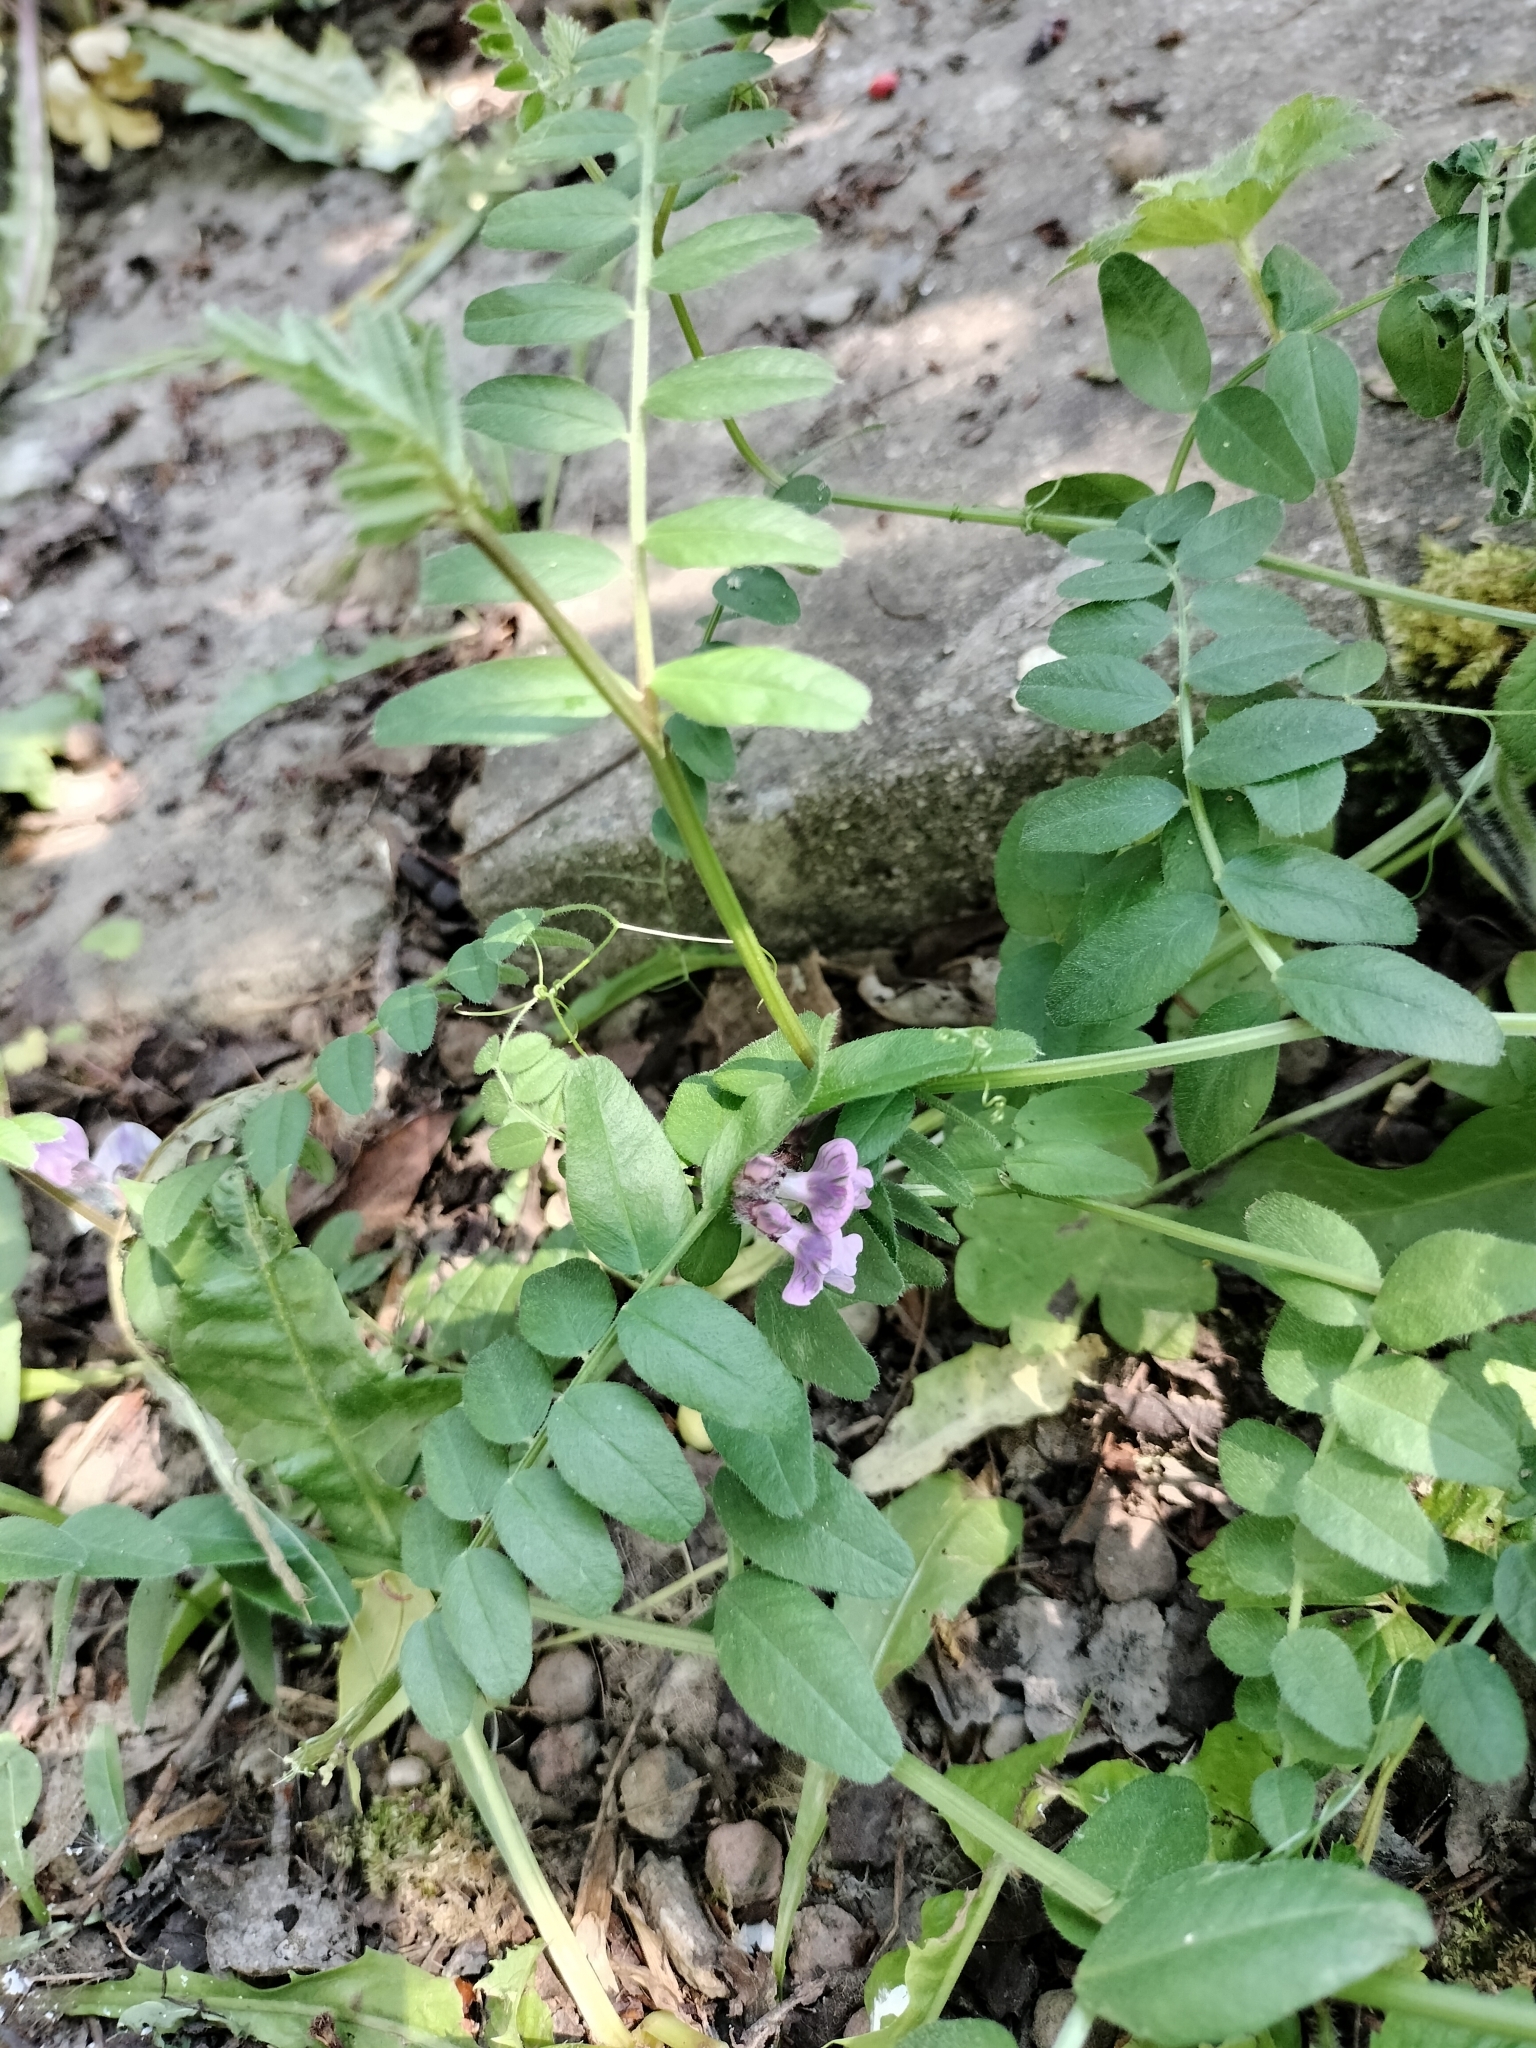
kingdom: Plantae
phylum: Tracheophyta
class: Magnoliopsida
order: Fabales
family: Fabaceae
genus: Vicia
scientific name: Vicia sepium
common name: Bush vetch
